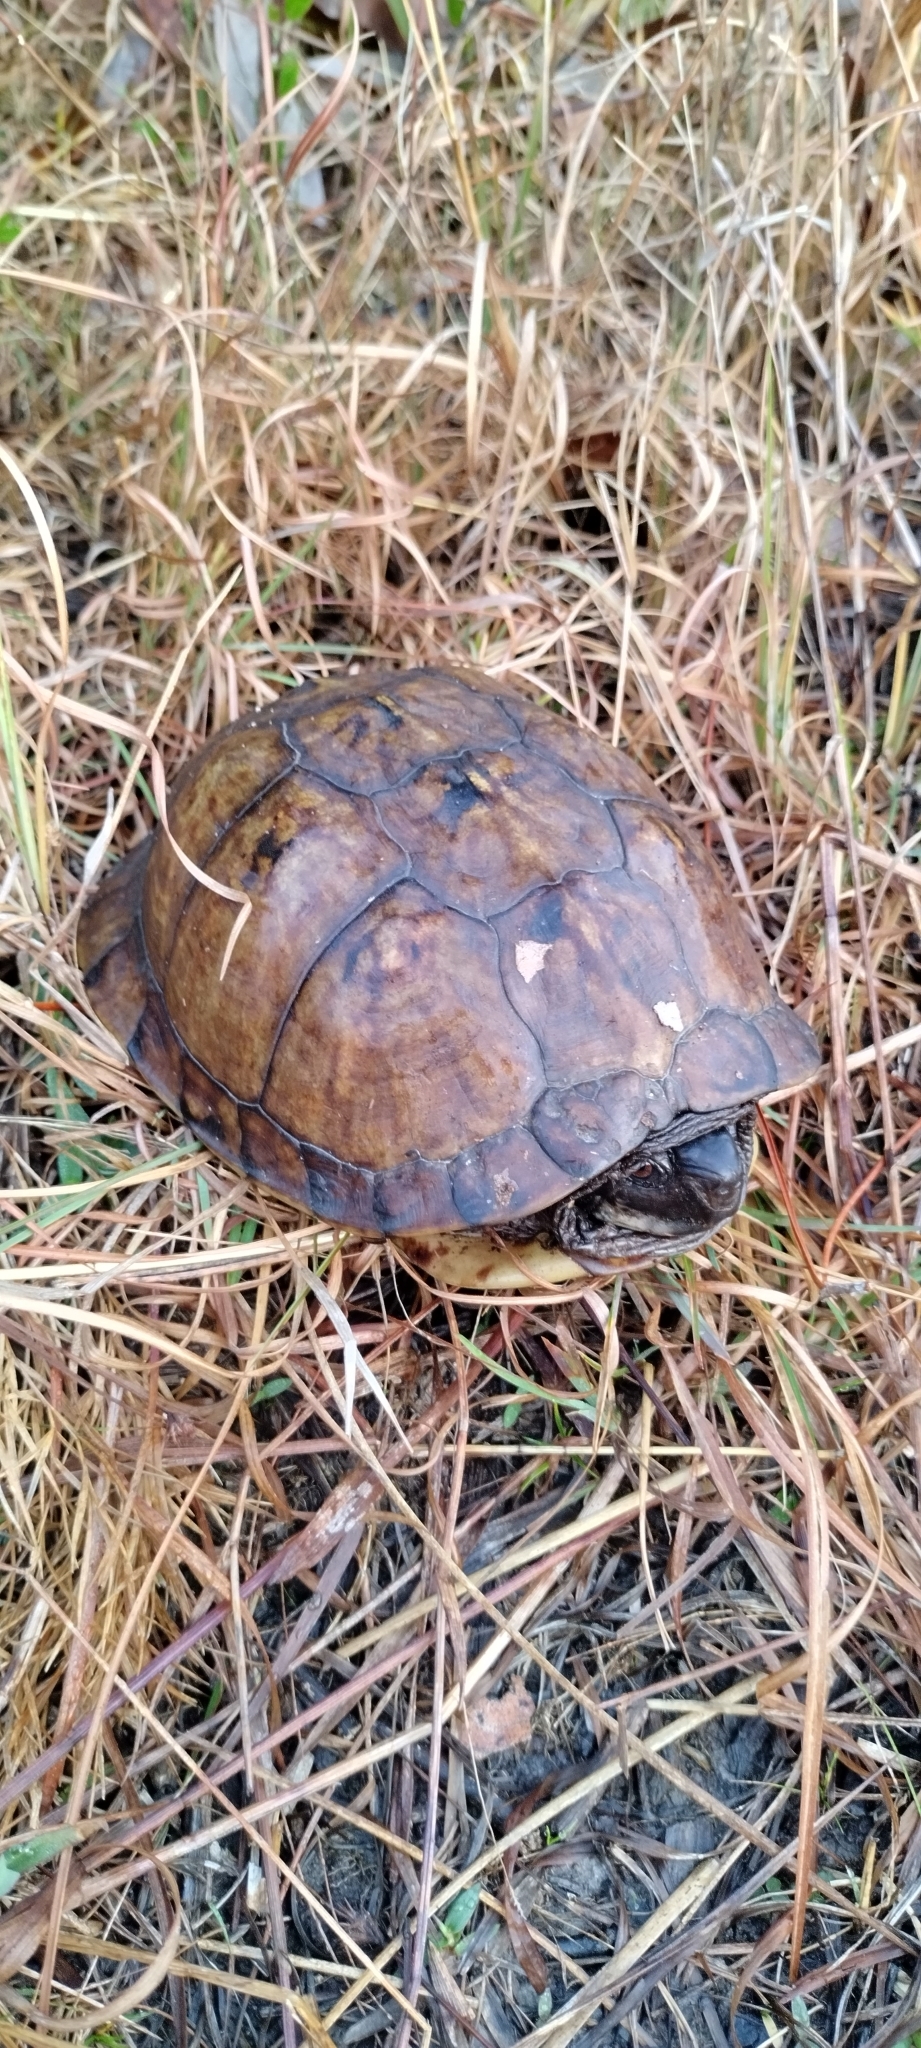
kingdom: Animalia
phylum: Chordata
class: Testudines
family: Emydidae
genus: Terrapene
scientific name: Terrapene carolina
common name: Common box turtle
